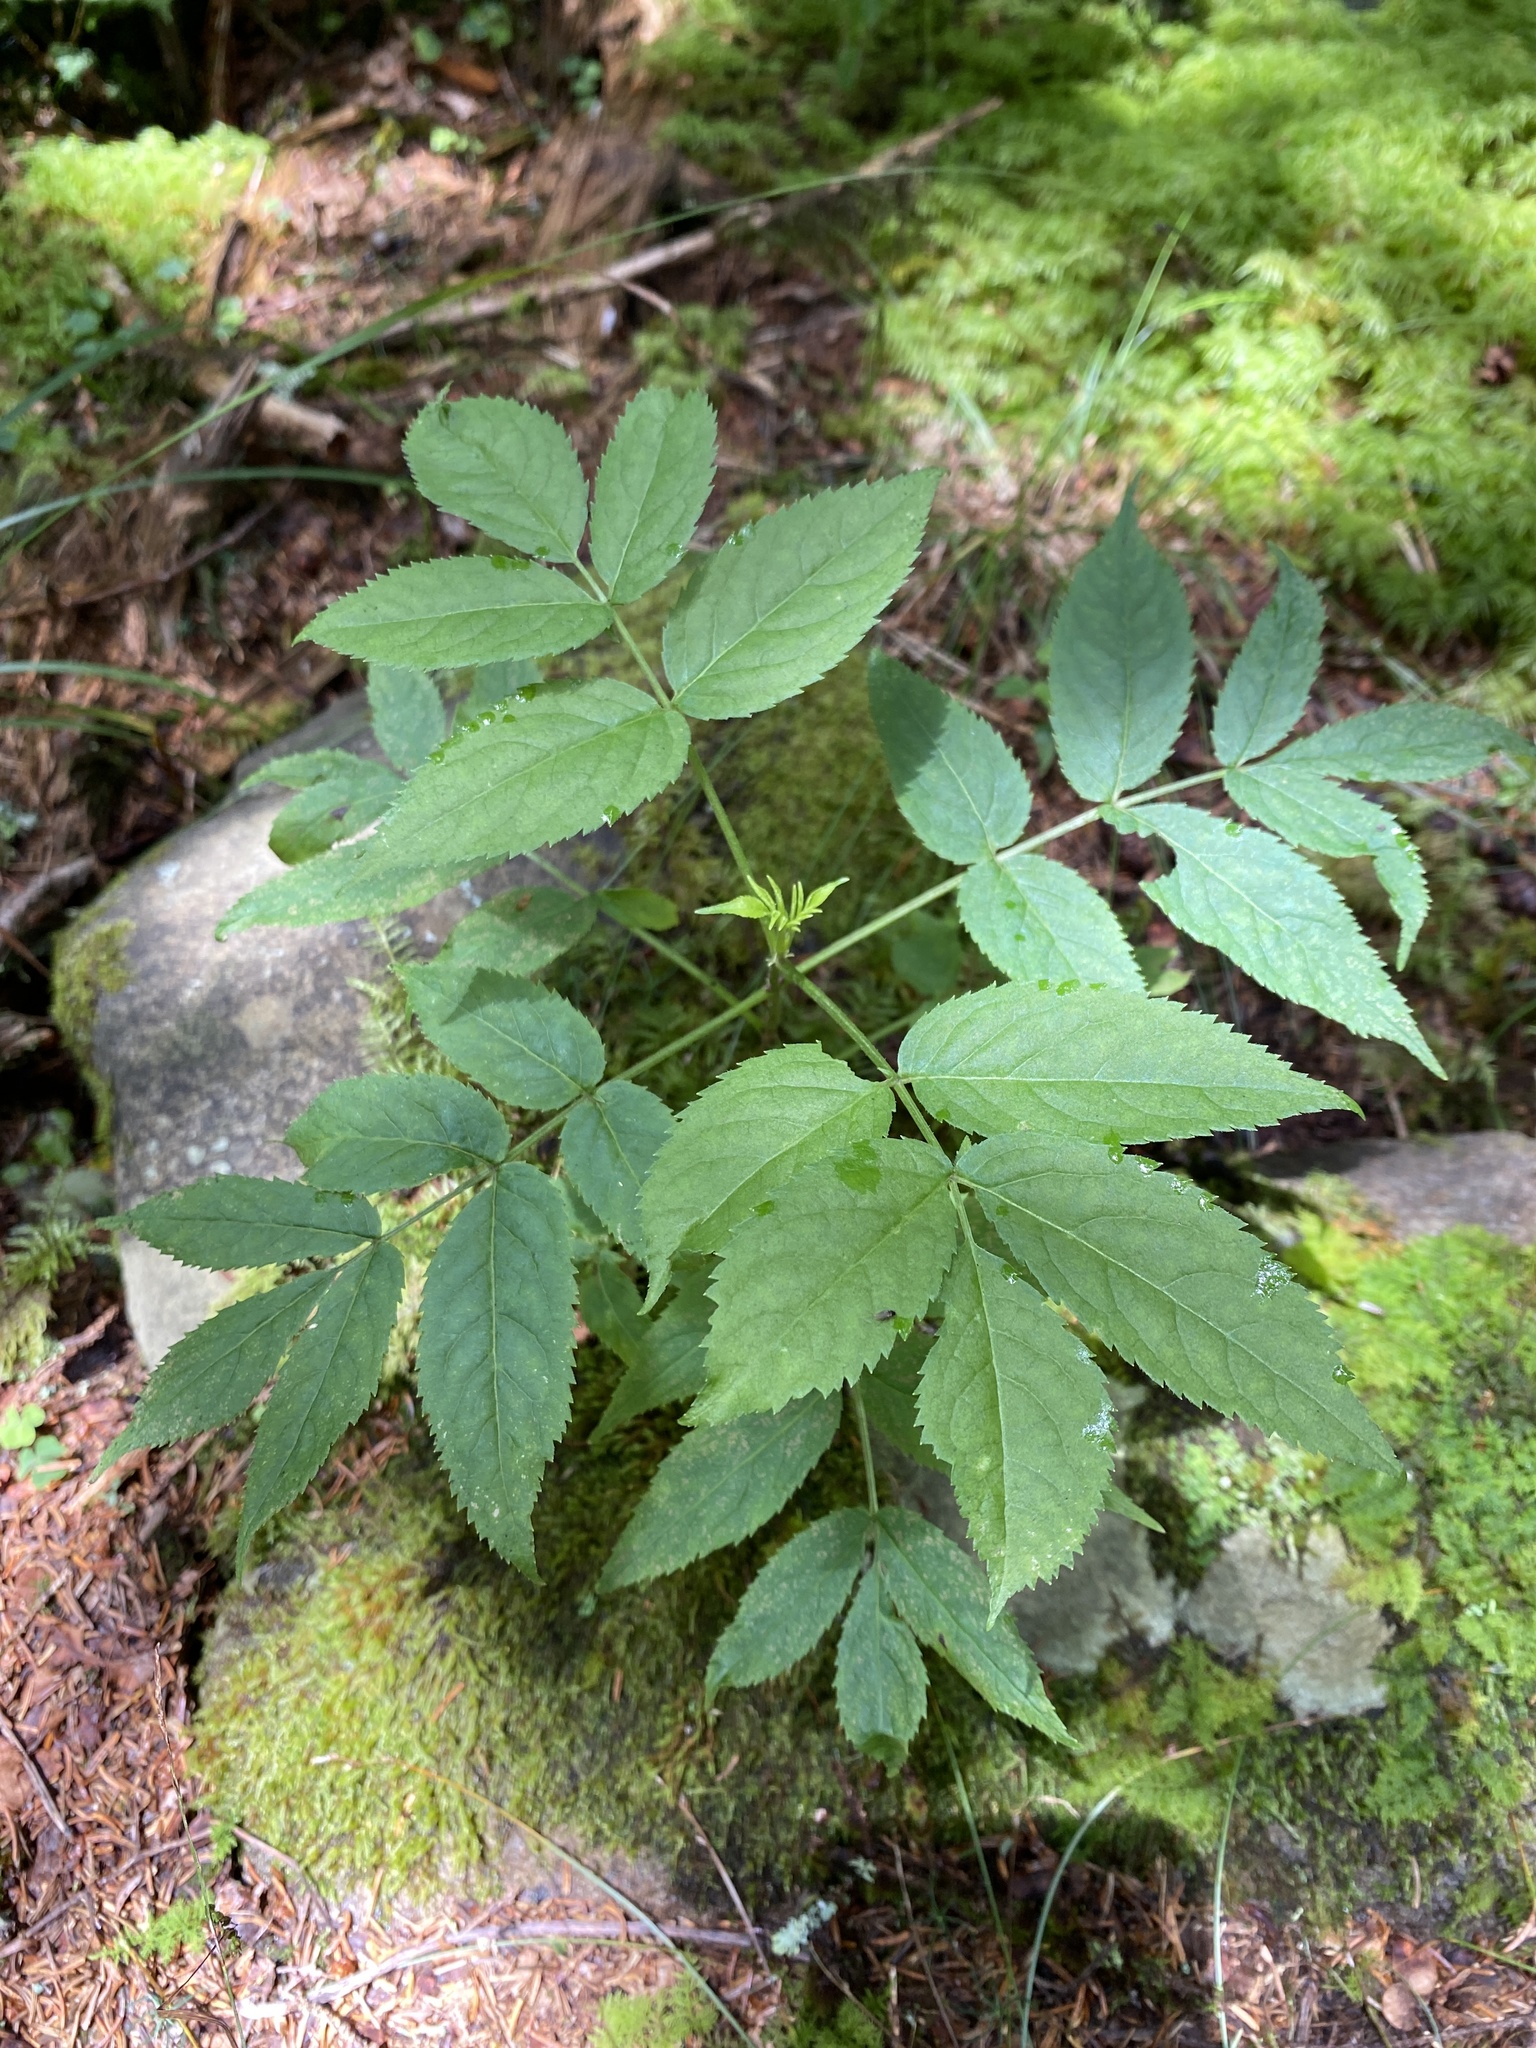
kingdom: Plantae
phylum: Tracheophyta
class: Magnoliopsida
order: Dipsacales
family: Viburnaceae
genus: Sambucus
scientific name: Sambucus racemosa
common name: Red-berried elder
